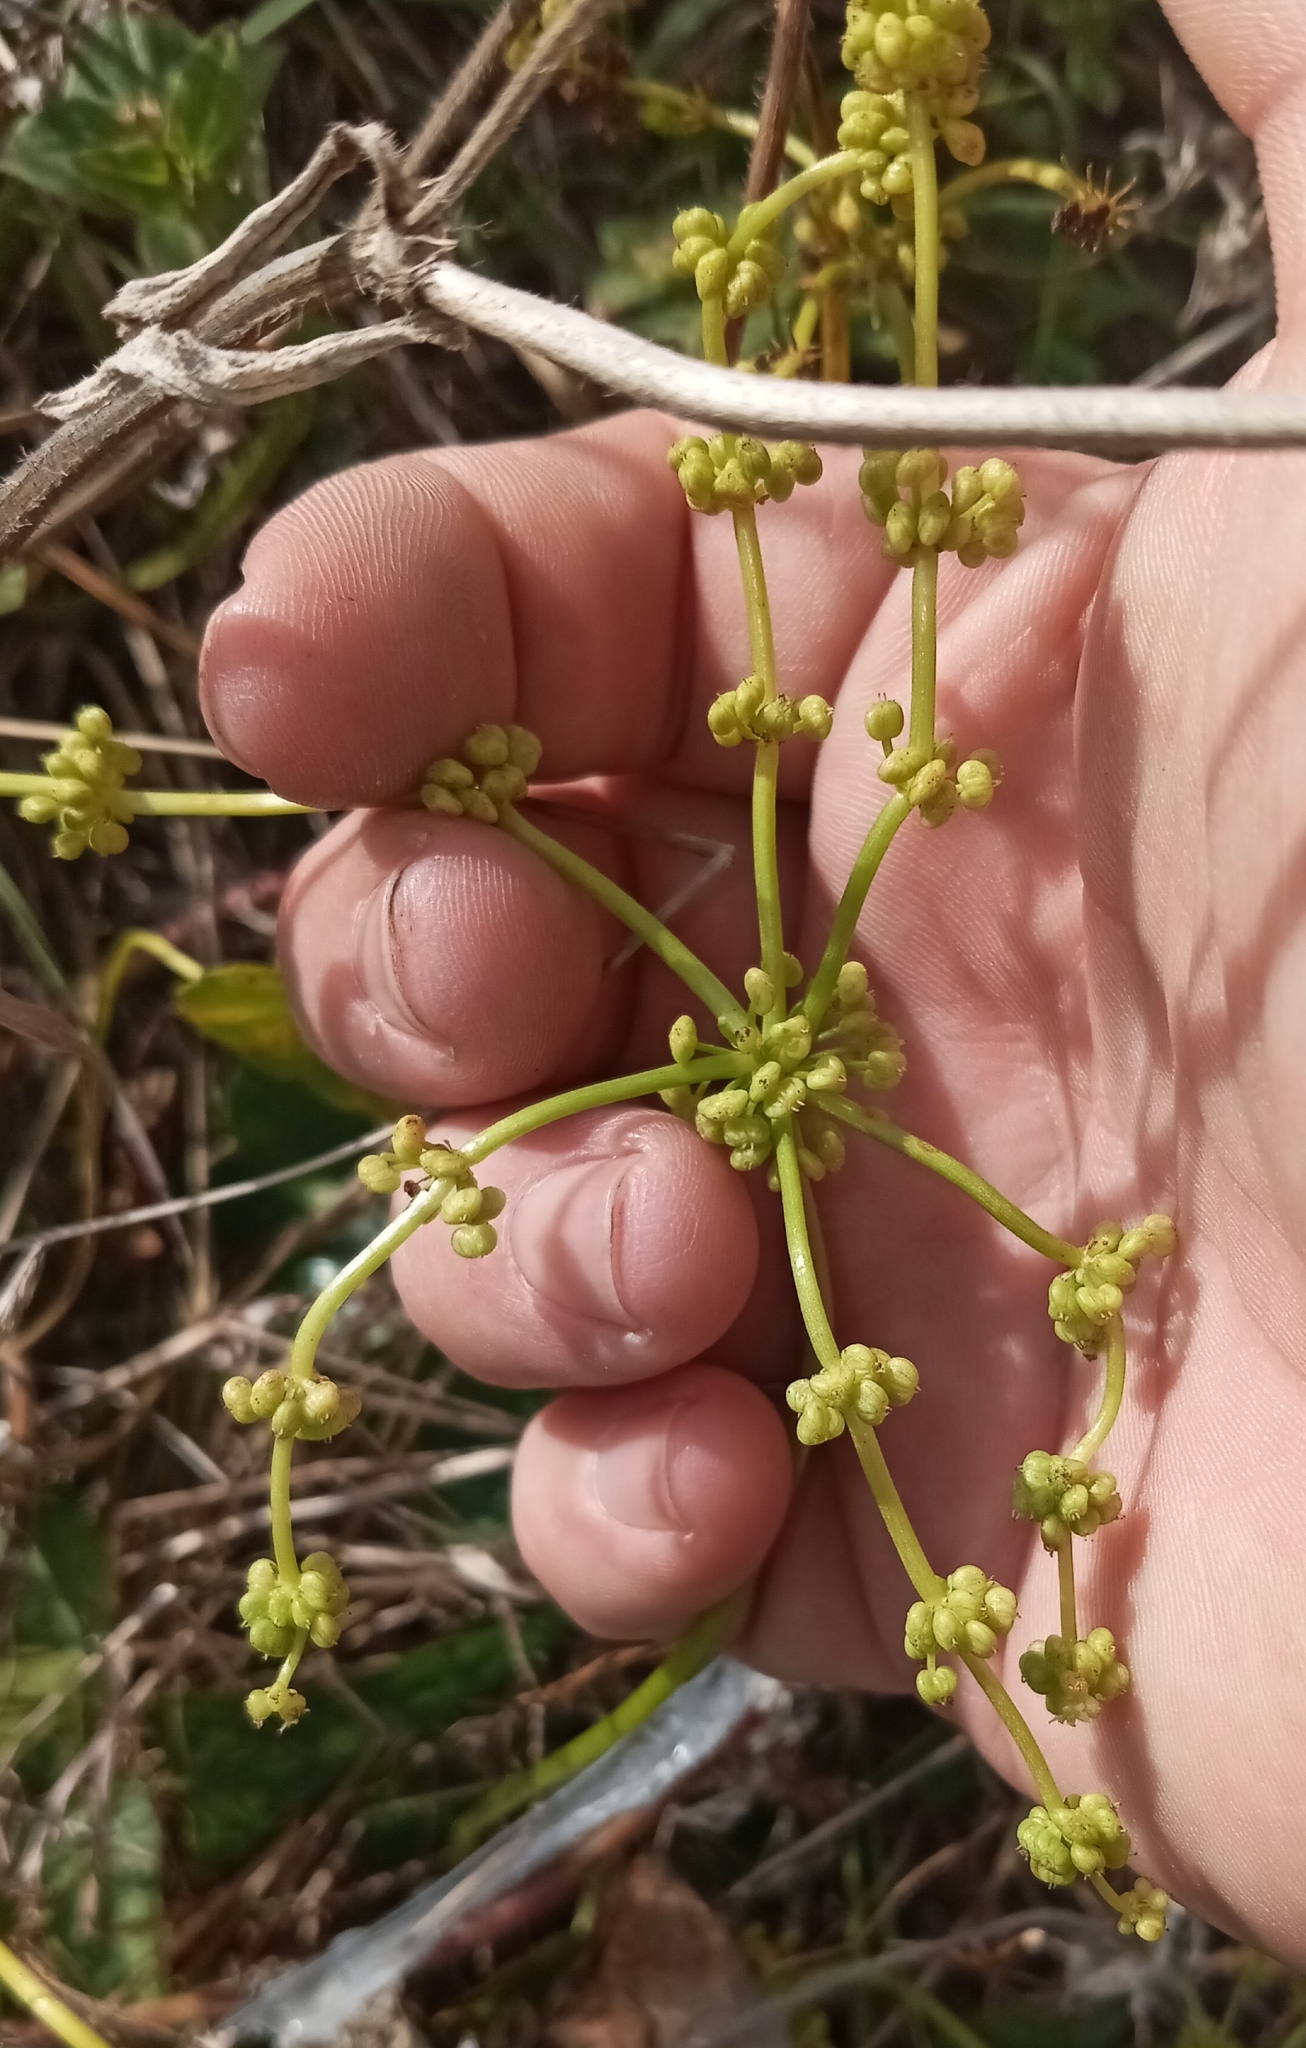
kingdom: Plantae
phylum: Tracheophyta
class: Magnoliopsida
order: Apiales
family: Araliaceae
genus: Hydrocotyle
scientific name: Hydrocotyle bonariensis
